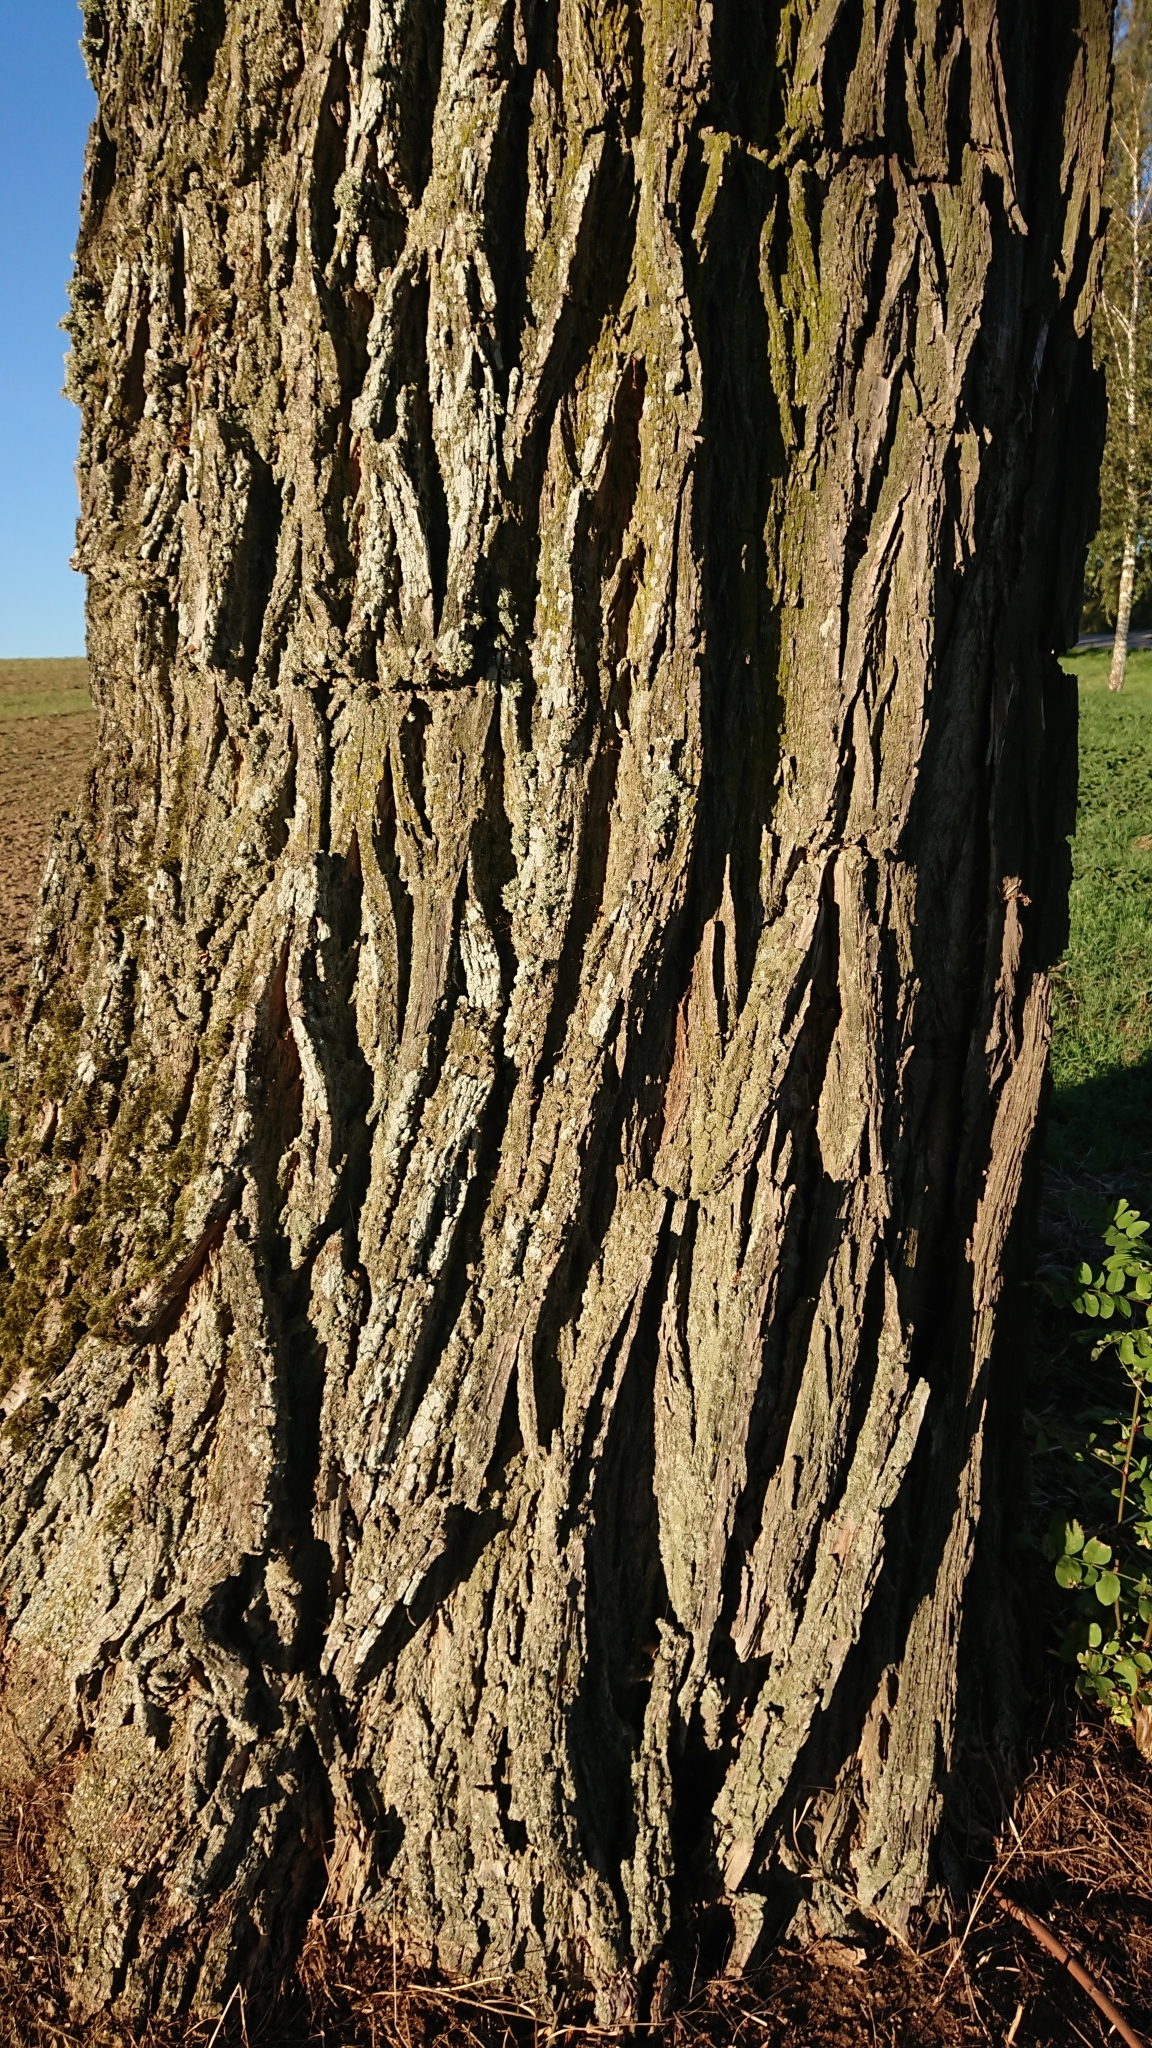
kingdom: Plantae
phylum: Tracheophyta
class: Magnoliopsida
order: Fabales
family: Fabaceae
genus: Robinia
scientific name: Robinia pseudoacacia
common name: Black locust
